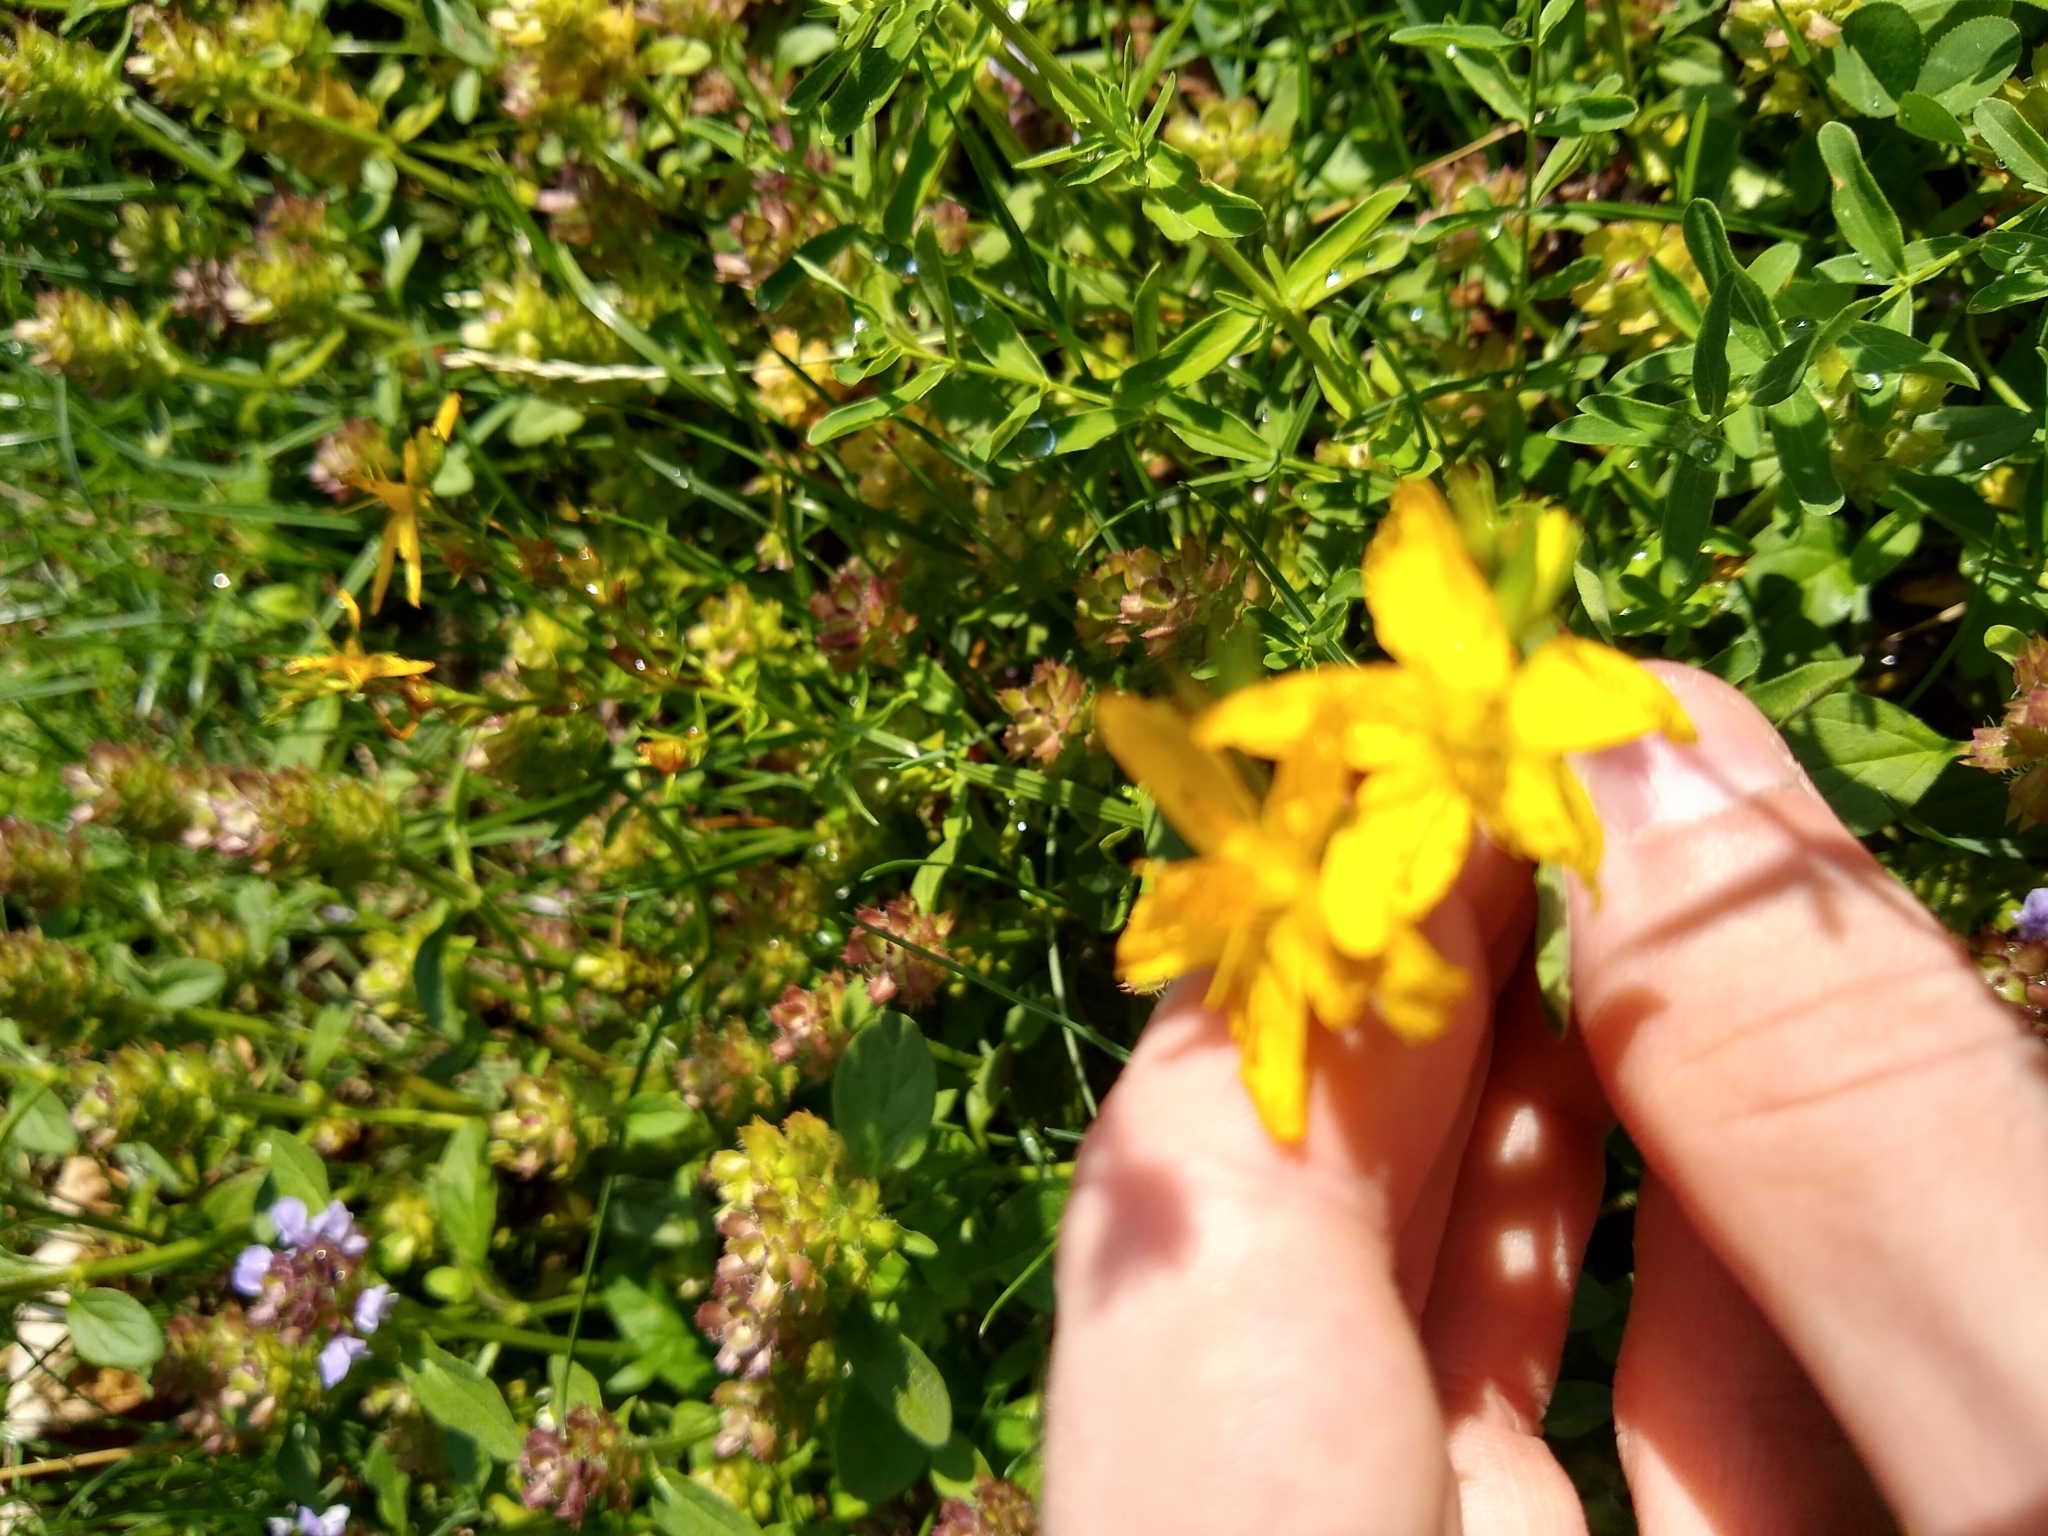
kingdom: Plantae
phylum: Tracheophyta
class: Magnoliopsida
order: Malpighiales
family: Hypericaceae
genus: Hypericum
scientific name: Hypericum perforatum
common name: Common st. johnswort
